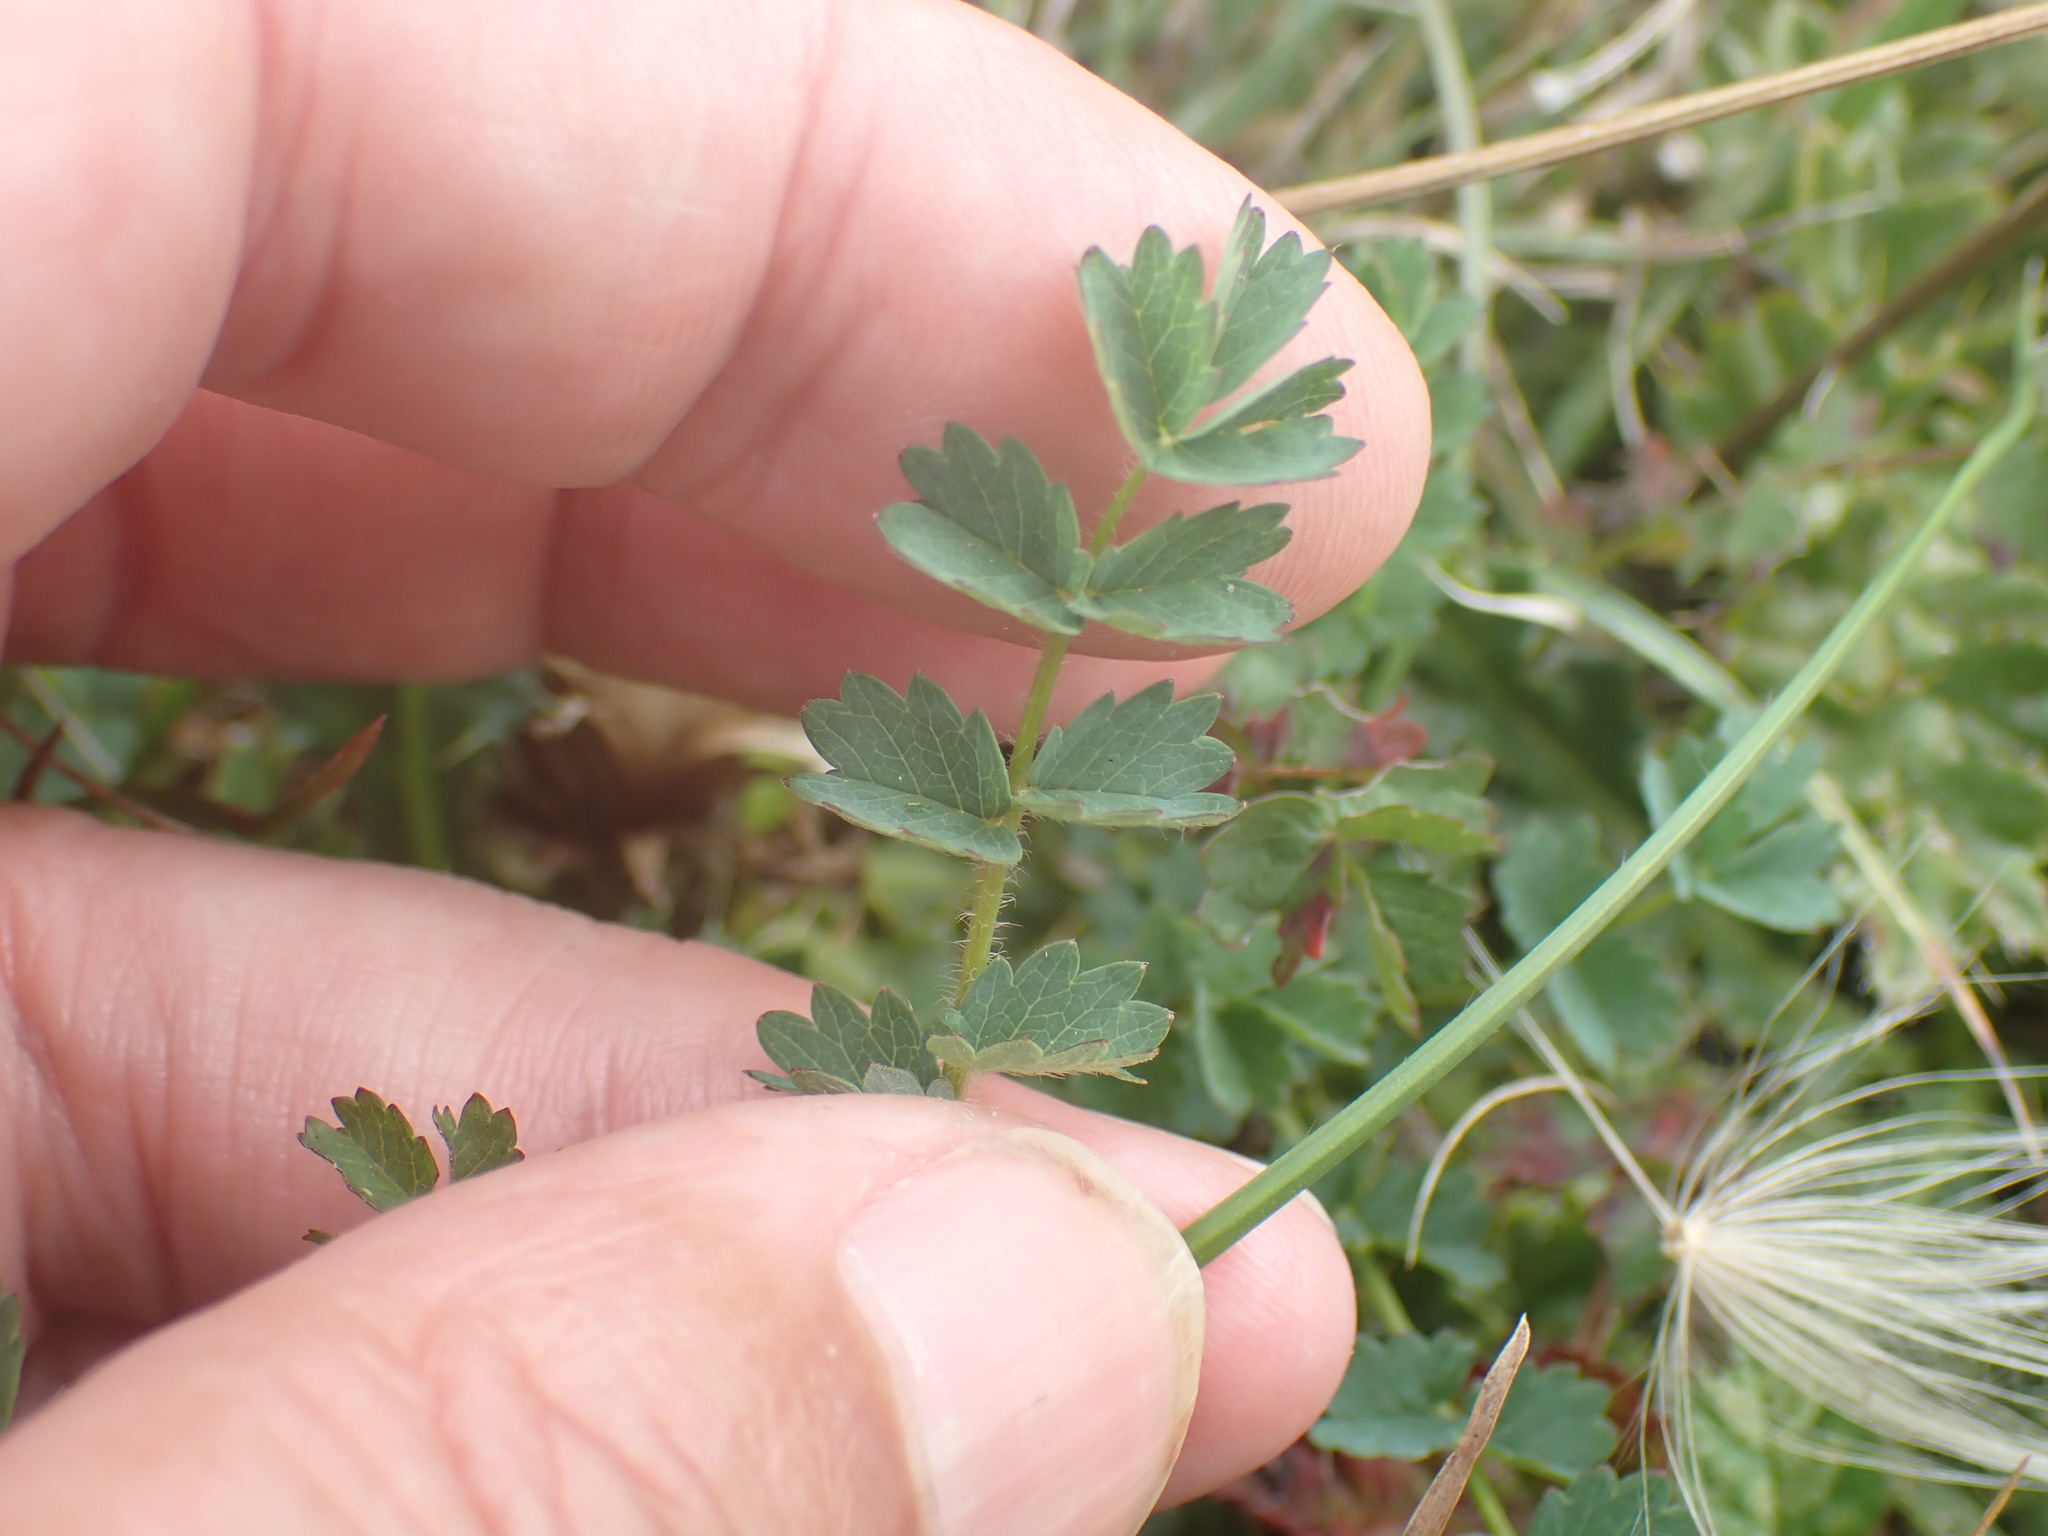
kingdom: Plantae
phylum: Tracheophyta
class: Magnoliopsida
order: Rosales
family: Rosaceae
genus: Poterium
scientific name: Poterium sanguisorba
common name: Salad burnet
